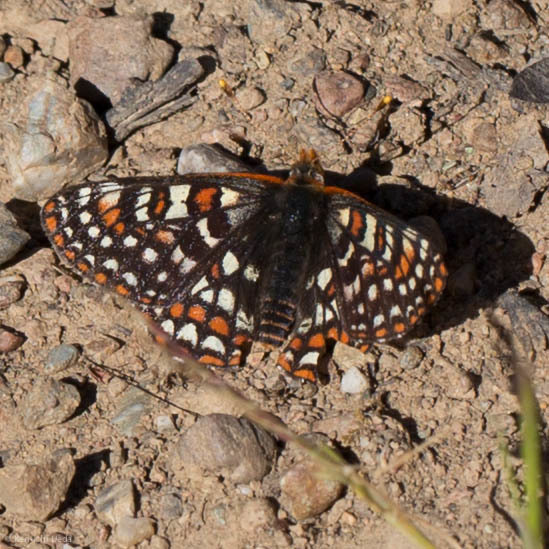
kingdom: Animalia
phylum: Arthropoda
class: Insecta
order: Lepidoptera
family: Nymphalidae
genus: Occidryas
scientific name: Occidryas editha
